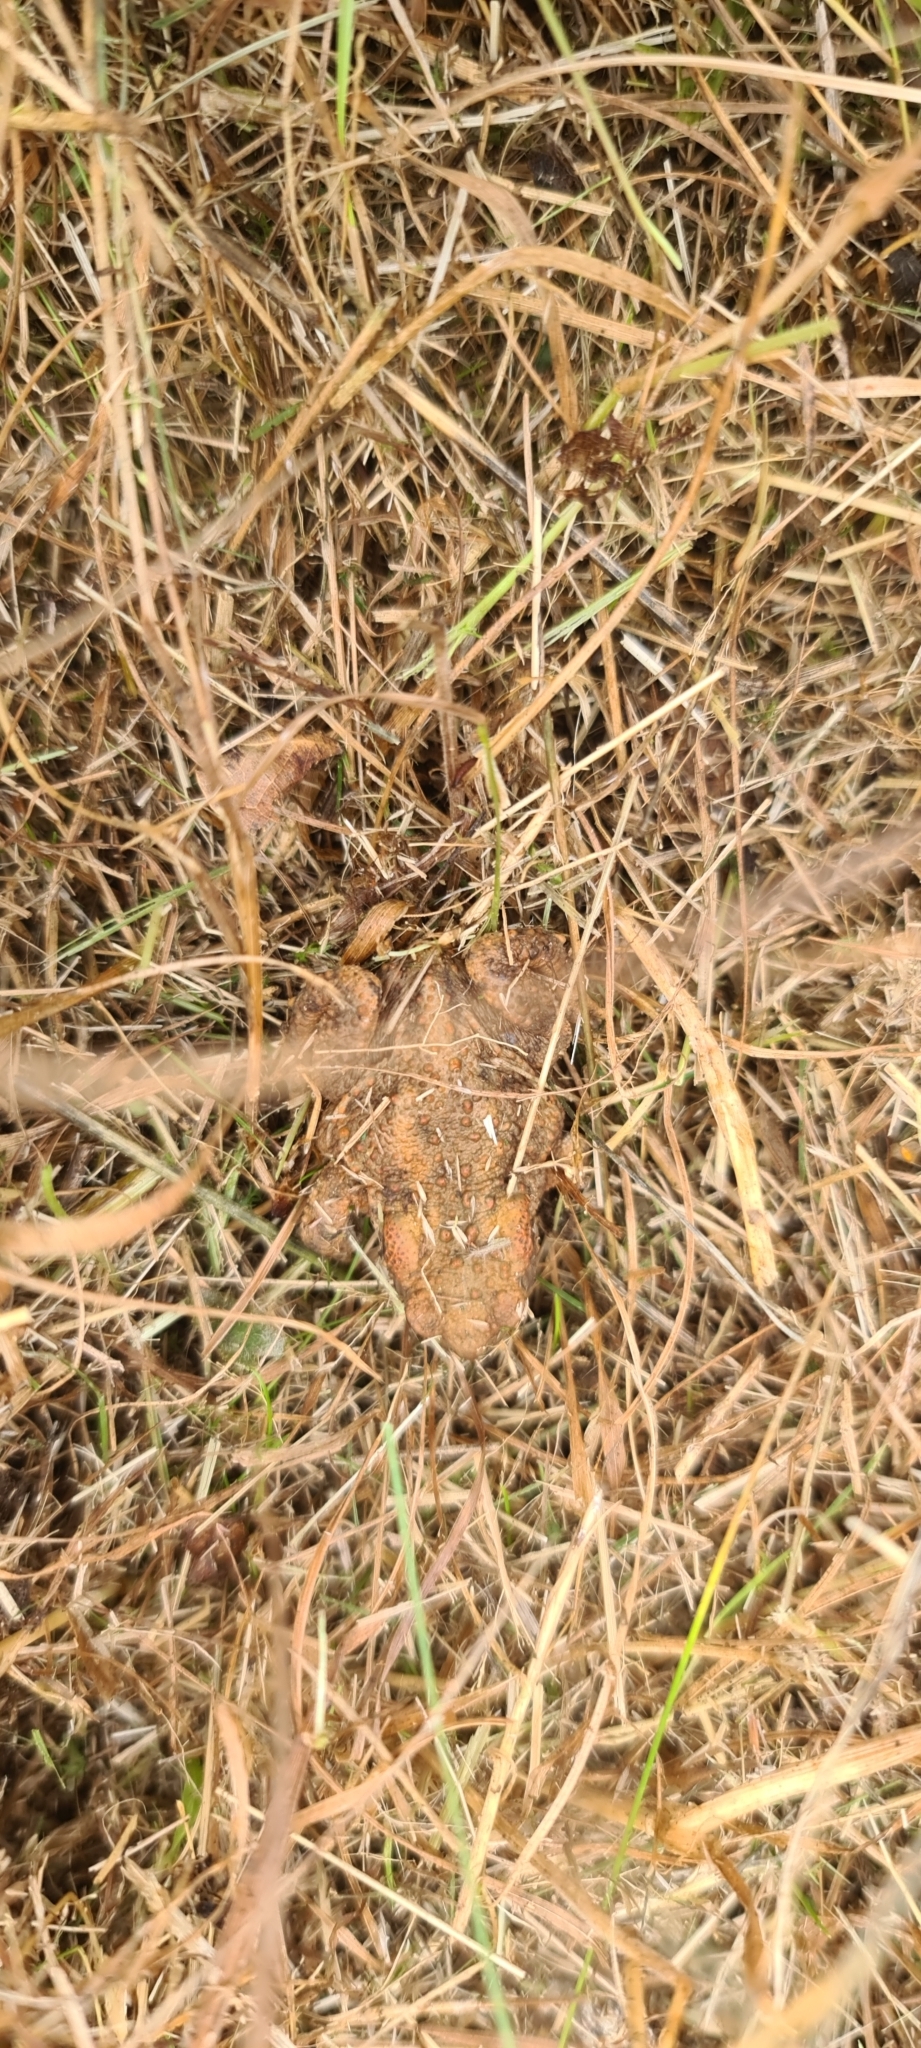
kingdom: Animalia
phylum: Chordata
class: Amphibia
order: Anura
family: Bufonidae
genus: Bufo
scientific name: Bufo bufo
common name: Common toad
